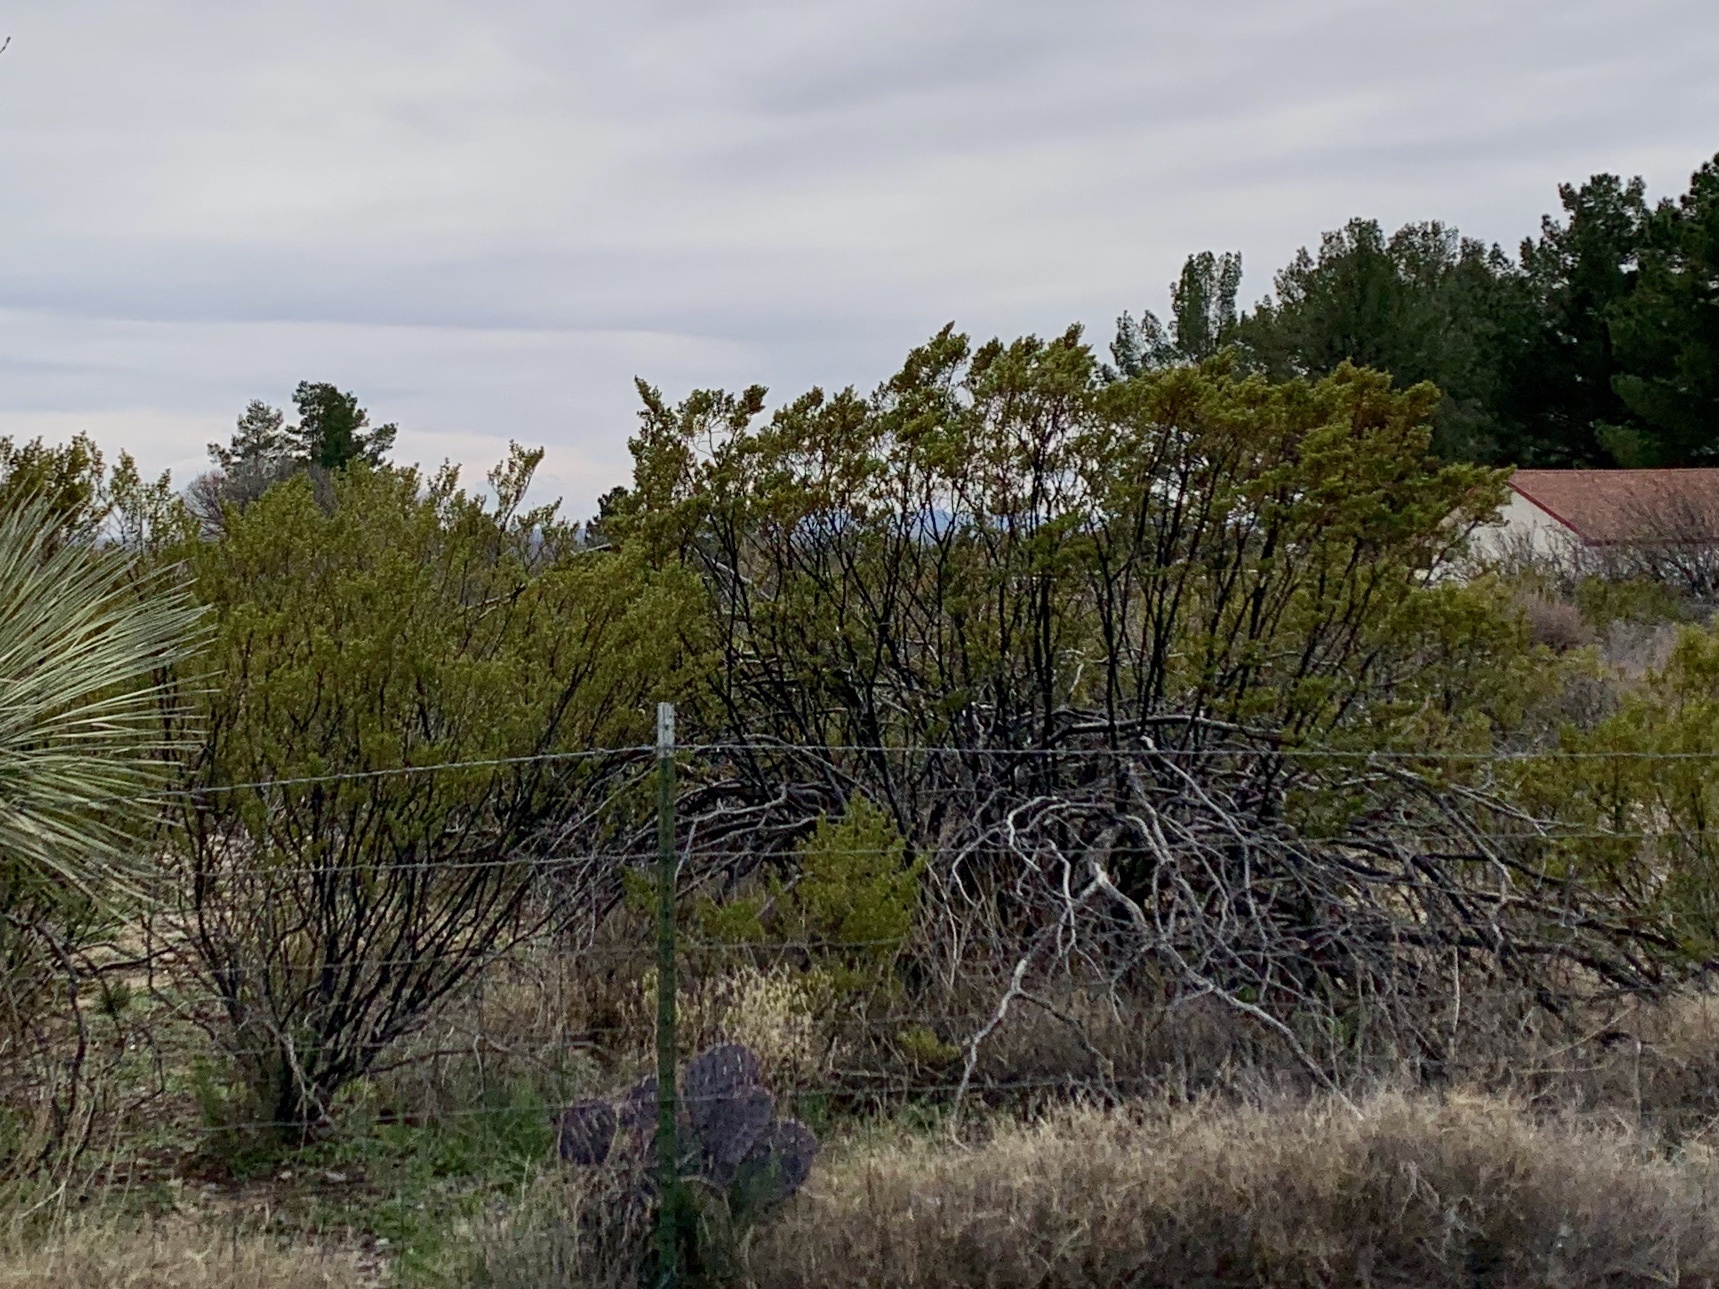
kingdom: Plantae
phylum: Tracheophyta
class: Magnoliopsida
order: Zygophyllales
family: Zygophyllaceae
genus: Larrea
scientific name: Larrea tridentata
